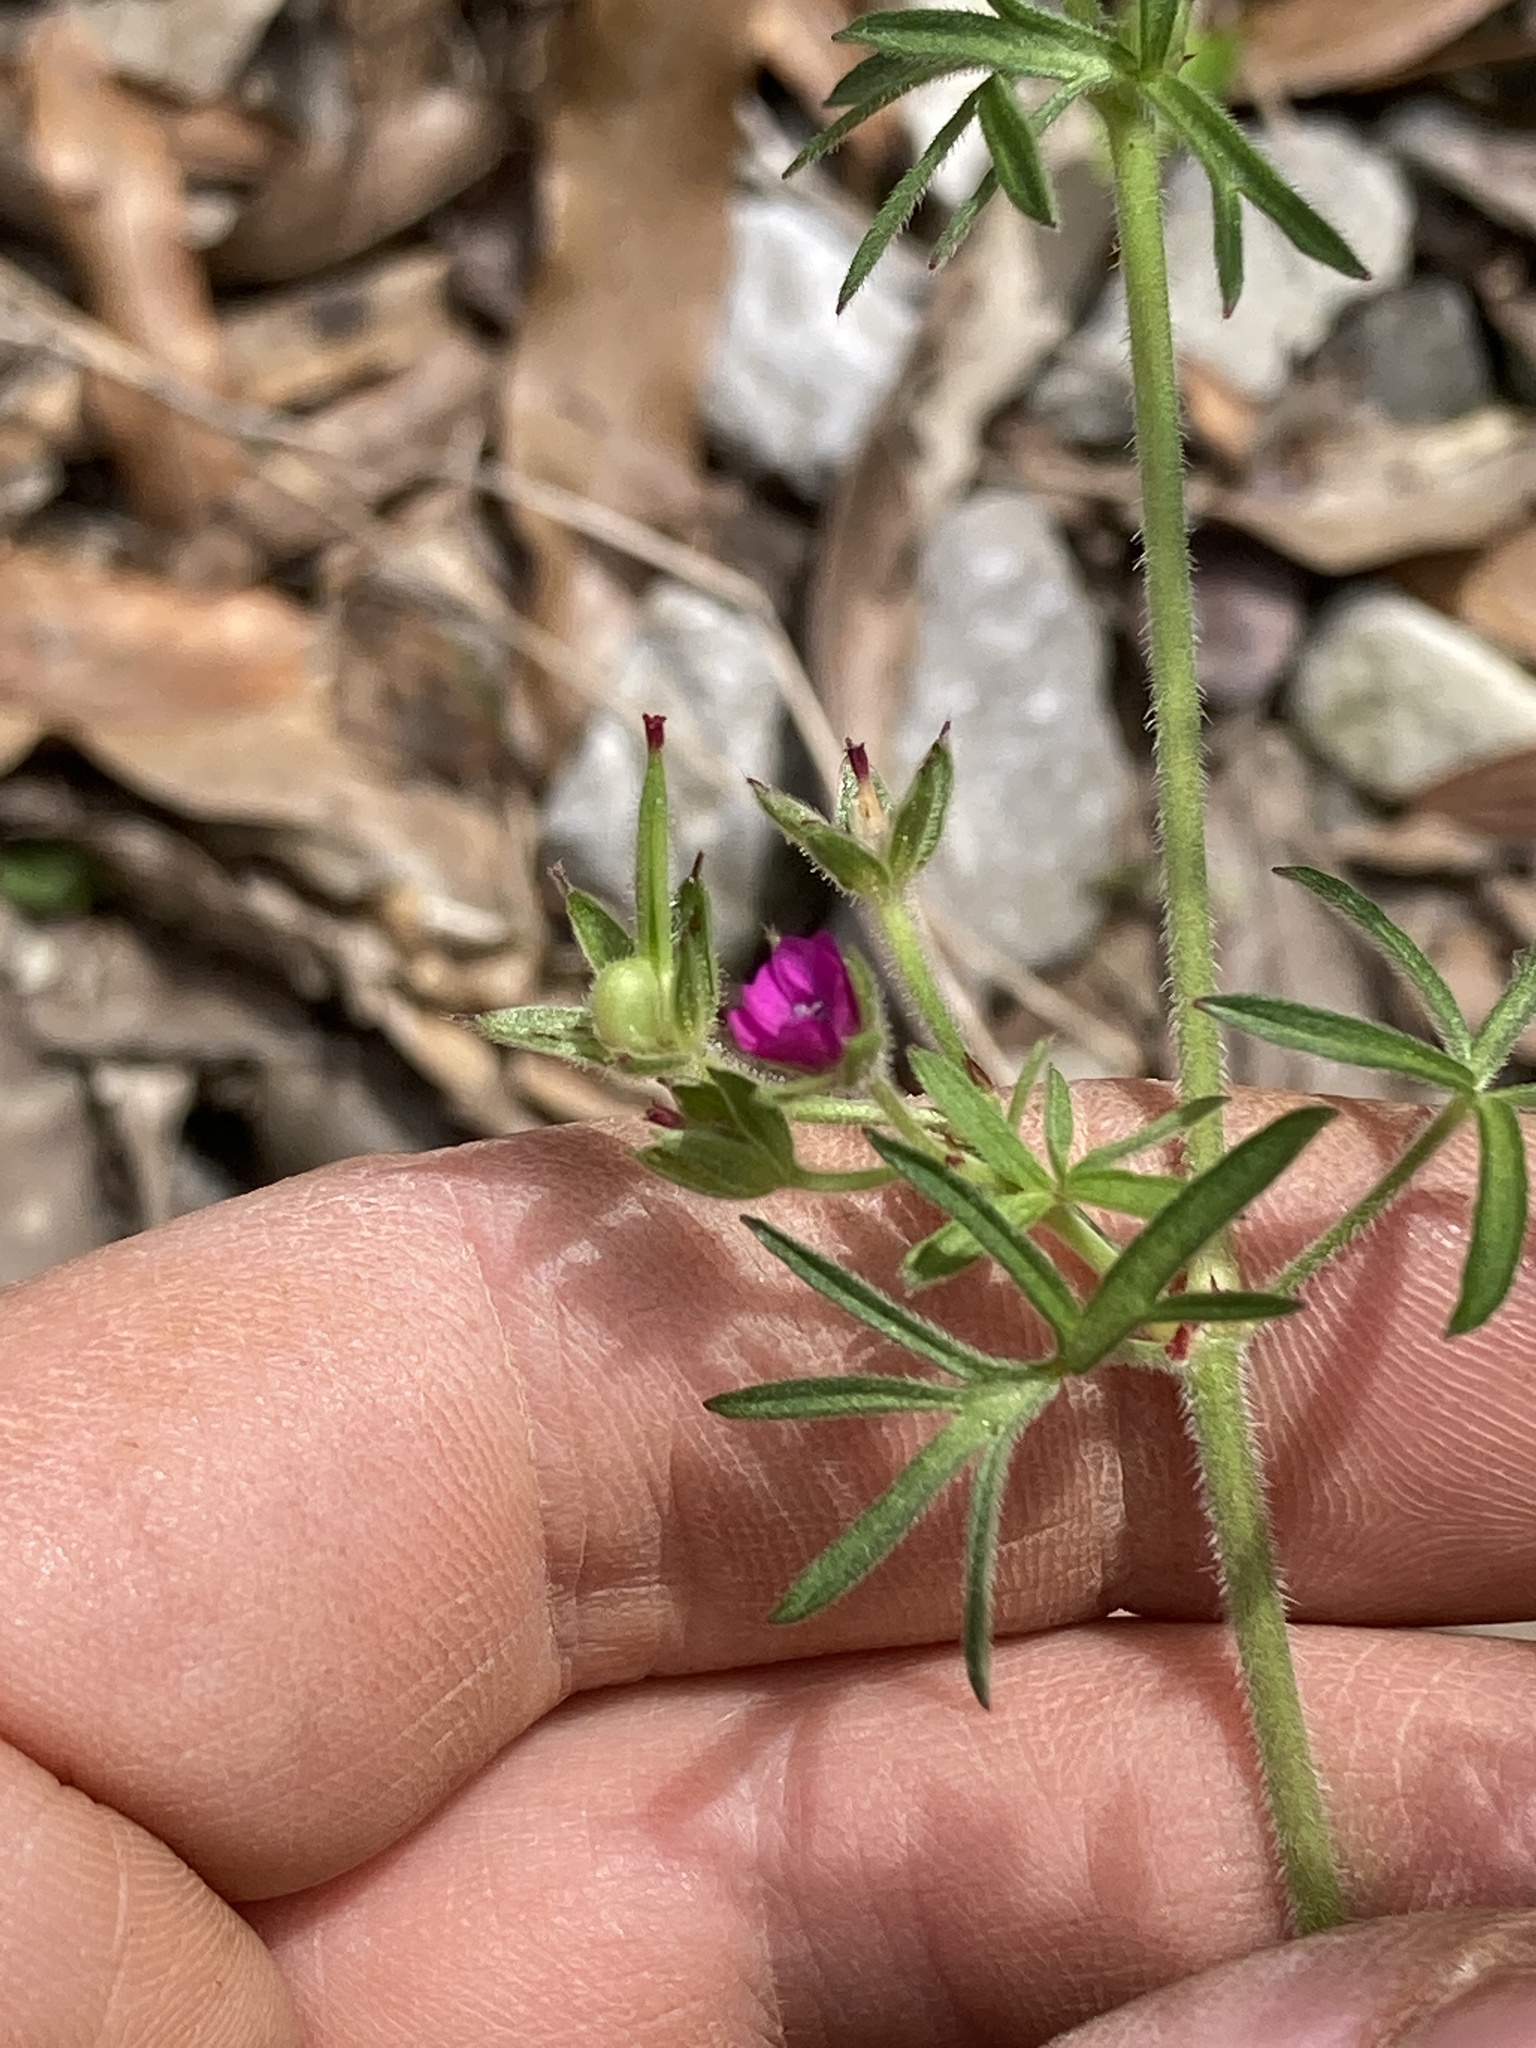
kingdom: Plantae
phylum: Tracheophyta
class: Magnoliopsida
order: Geraniales
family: Geraniaceae
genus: Geranium
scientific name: Geranium dissectum
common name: Cut-leaved crane's-bill
